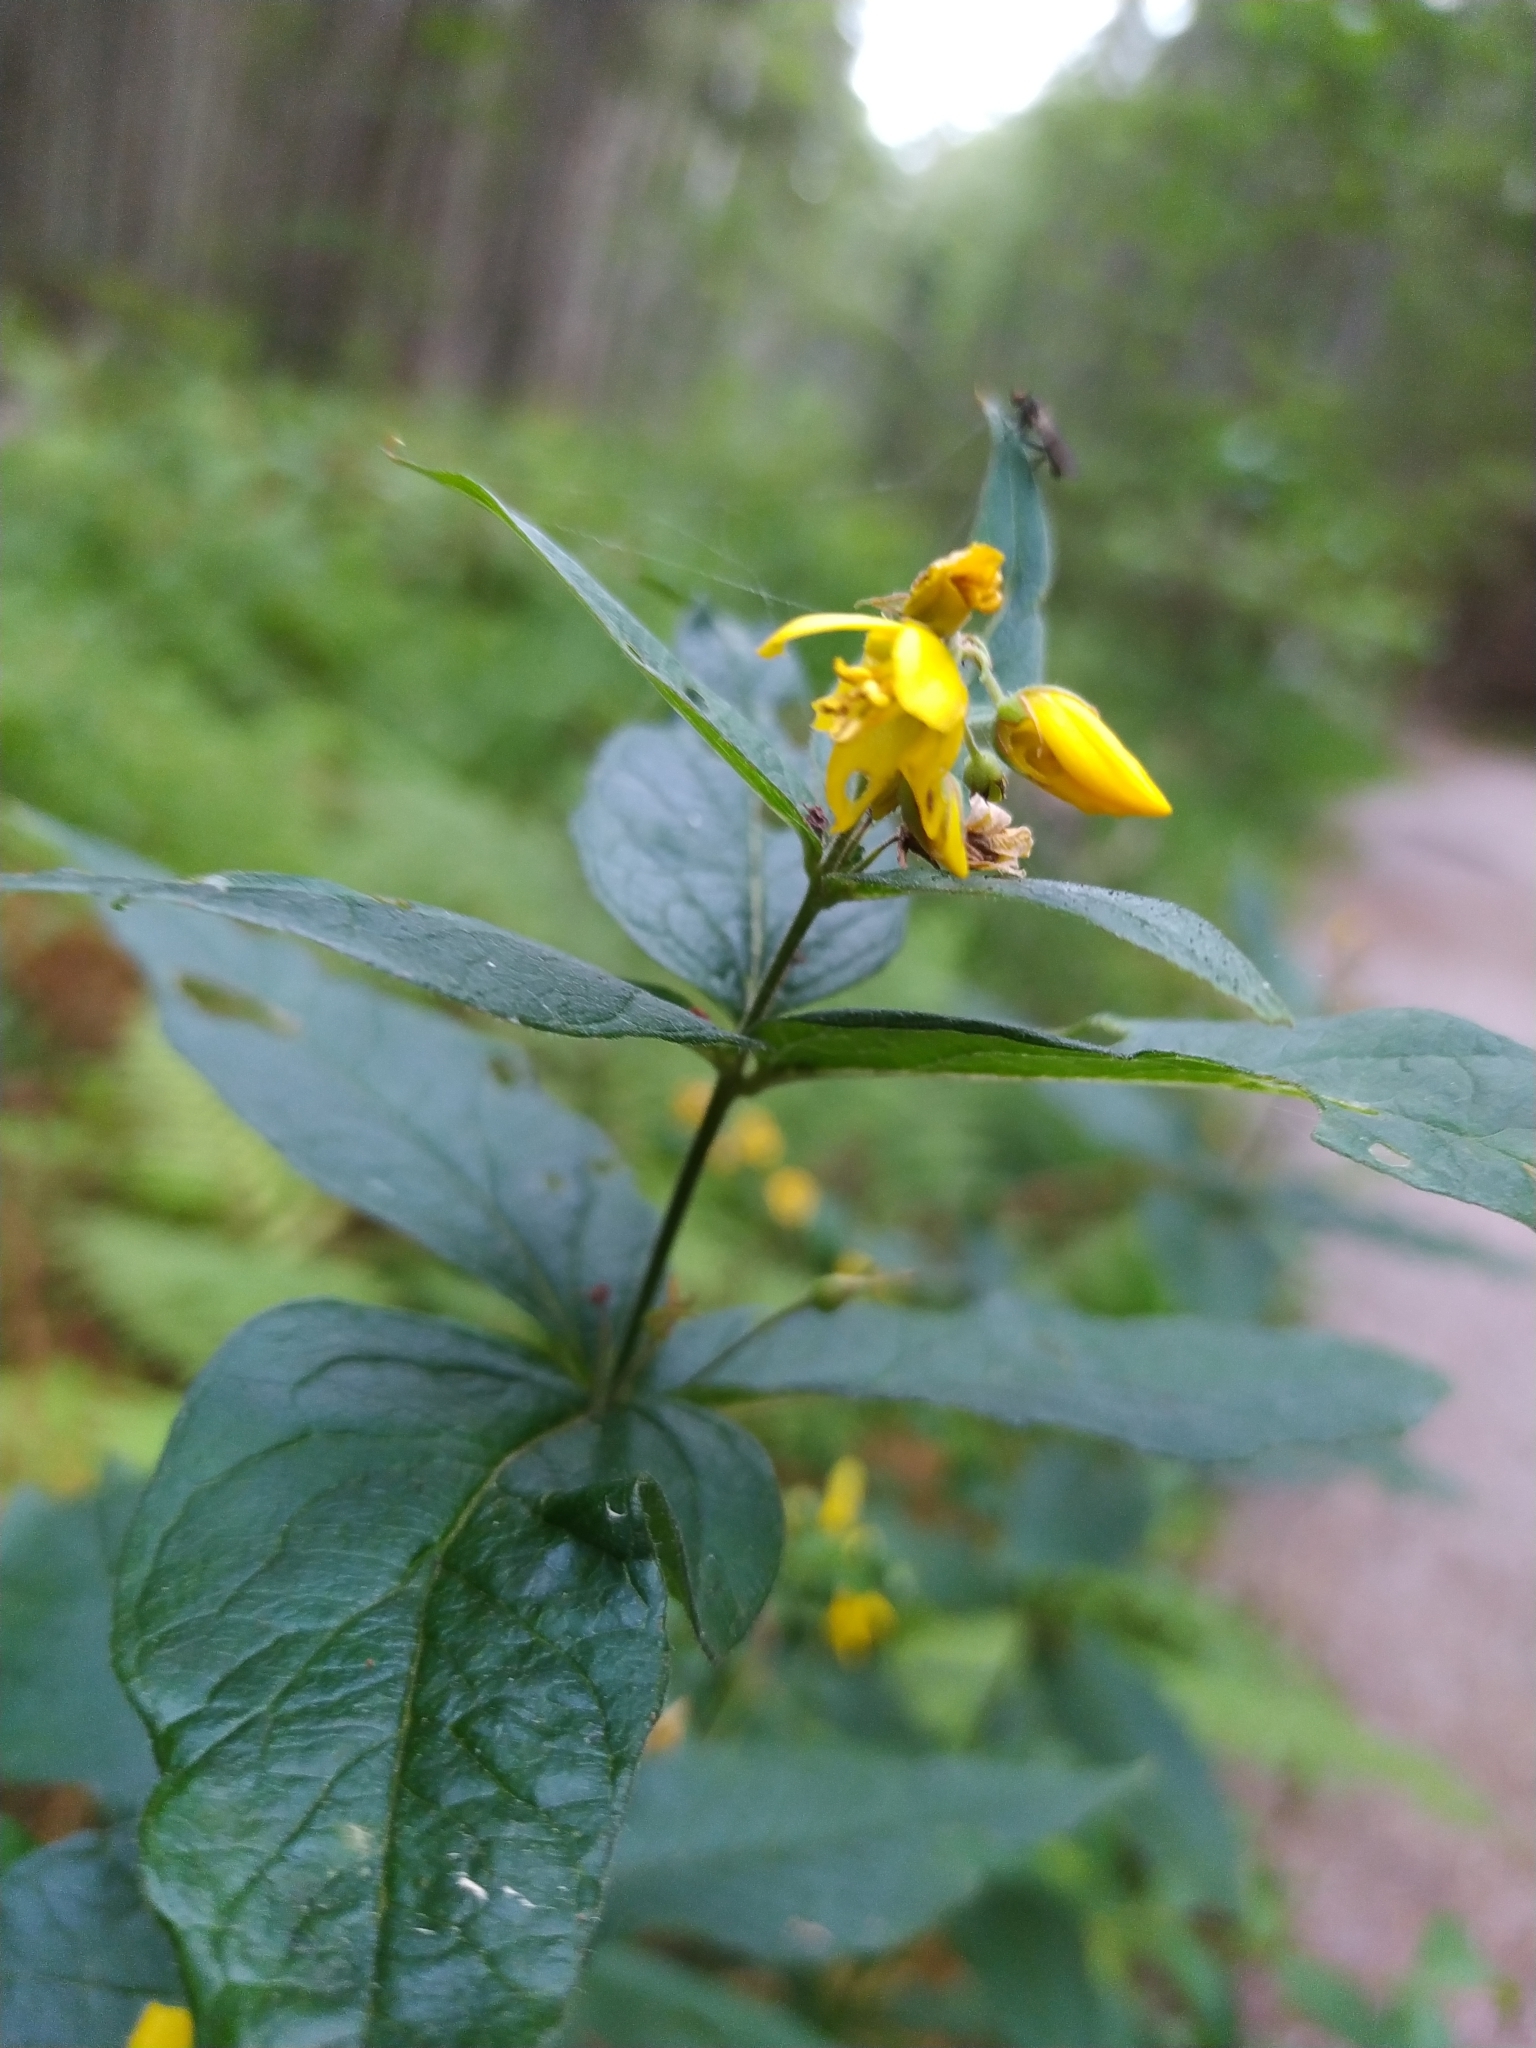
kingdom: Plantae
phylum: Tracheophyta
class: Magnoliopsida
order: Ericales
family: Primulaceae
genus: Lysimachia
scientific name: Lysimachia vulgaris
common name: Yellow loosestrife
